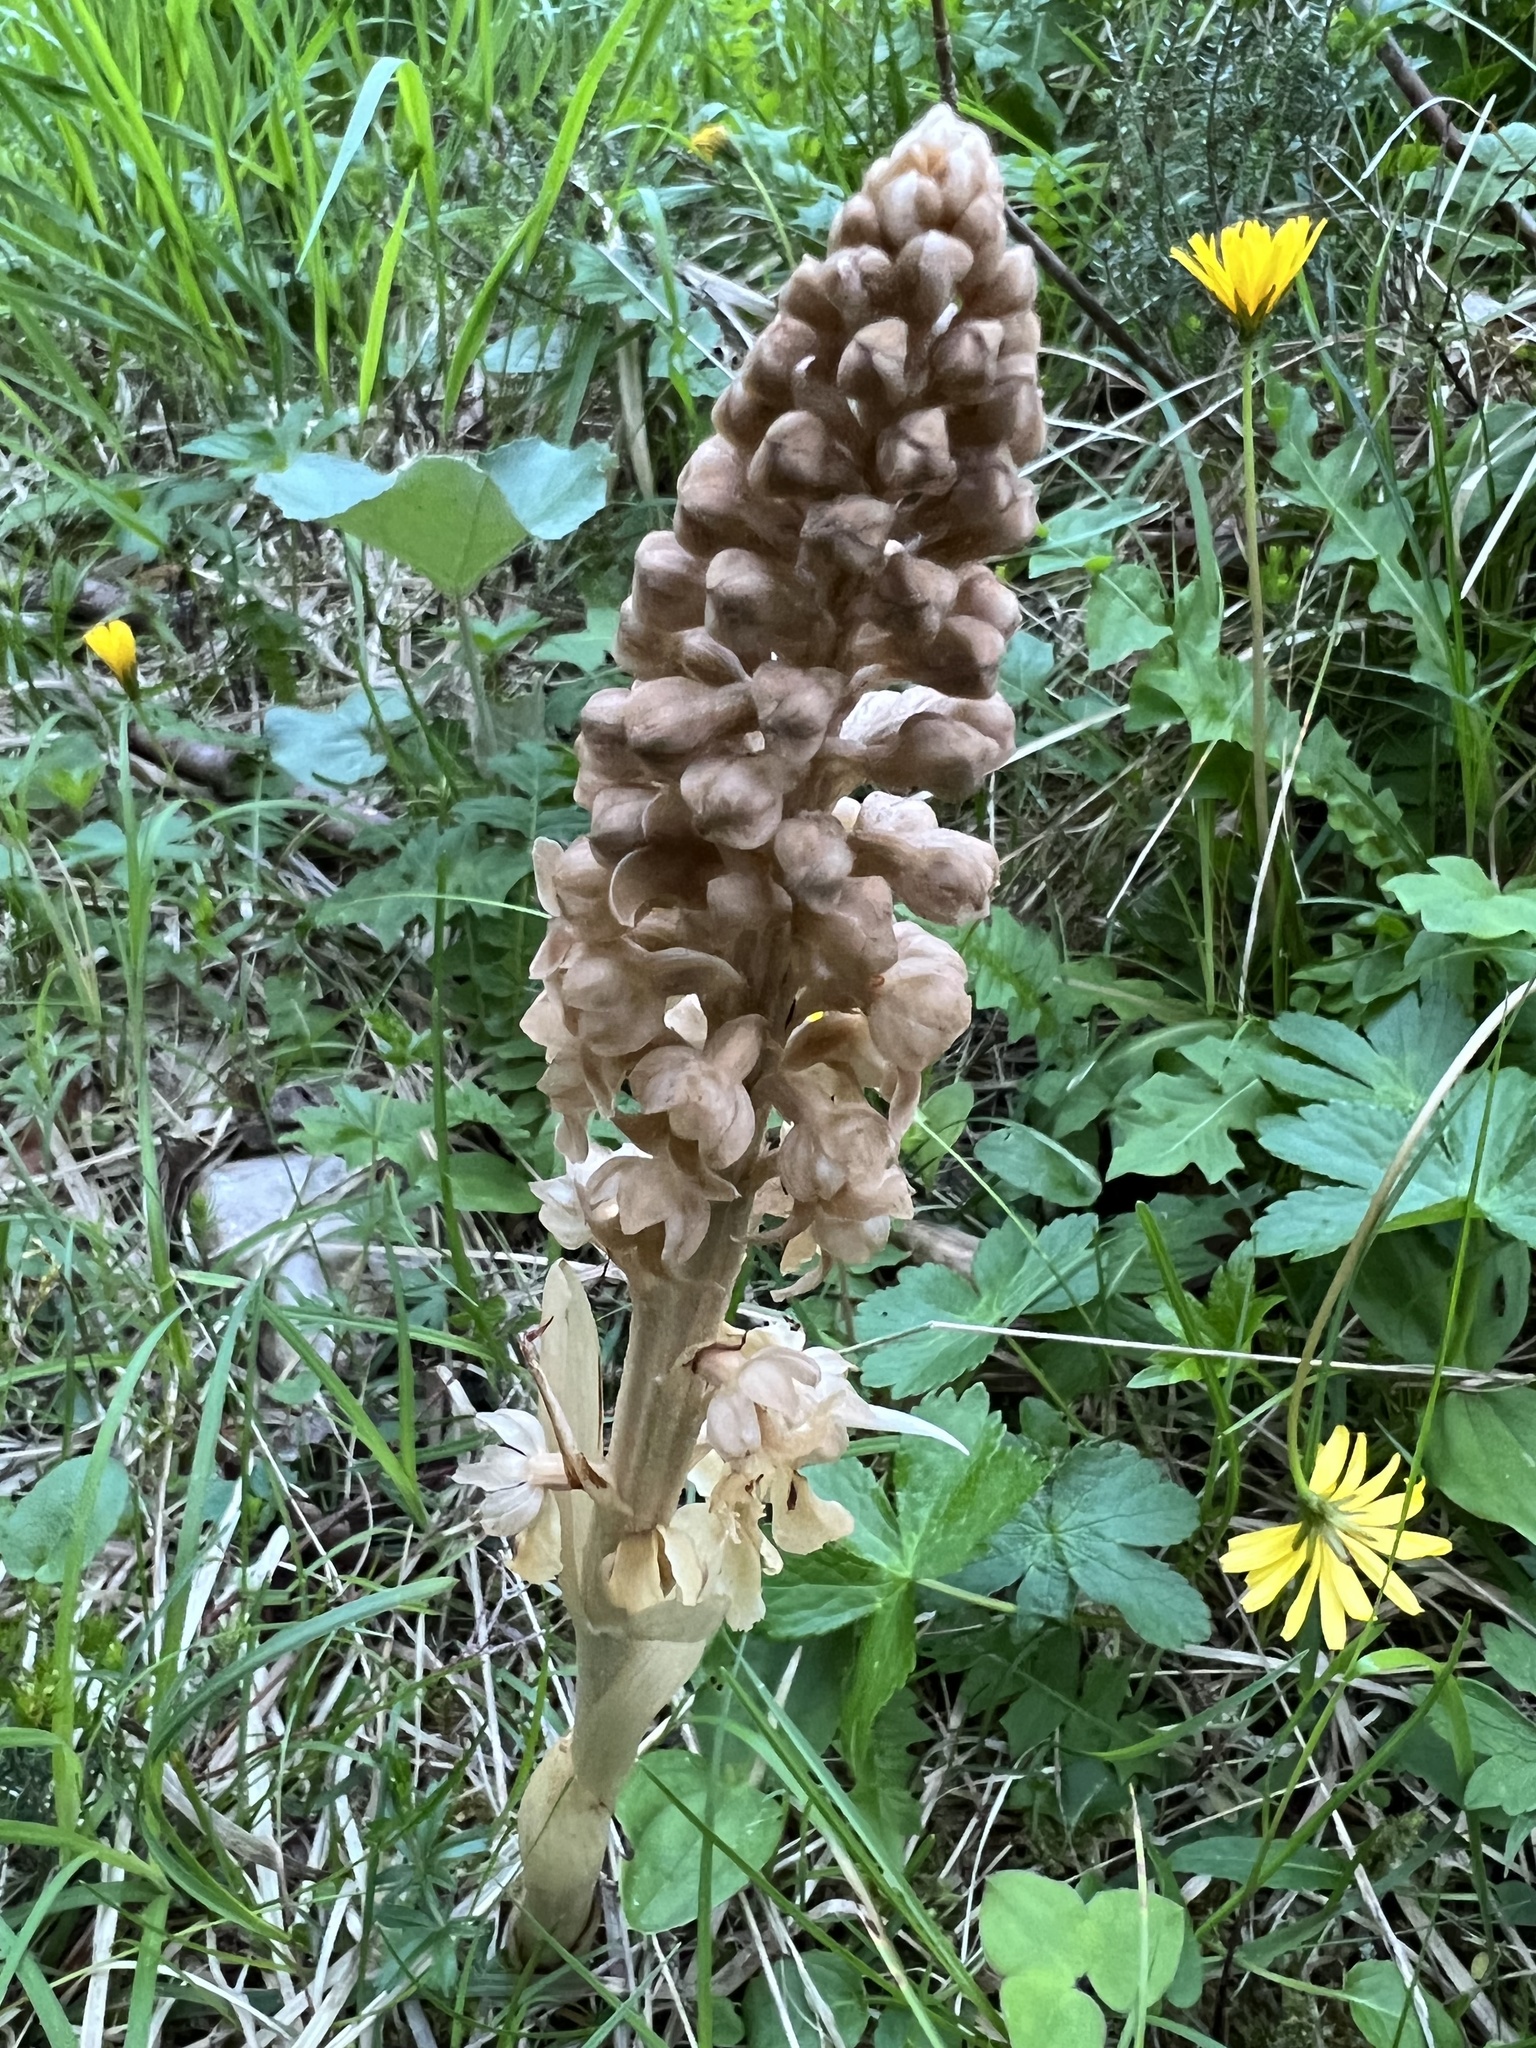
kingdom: Plantae
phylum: Tracheophyta
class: Liliopsida
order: Asparagales
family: Orchidaceae
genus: Neottia
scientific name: Neottia nidus-avis
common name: Bird's-nest orchid
